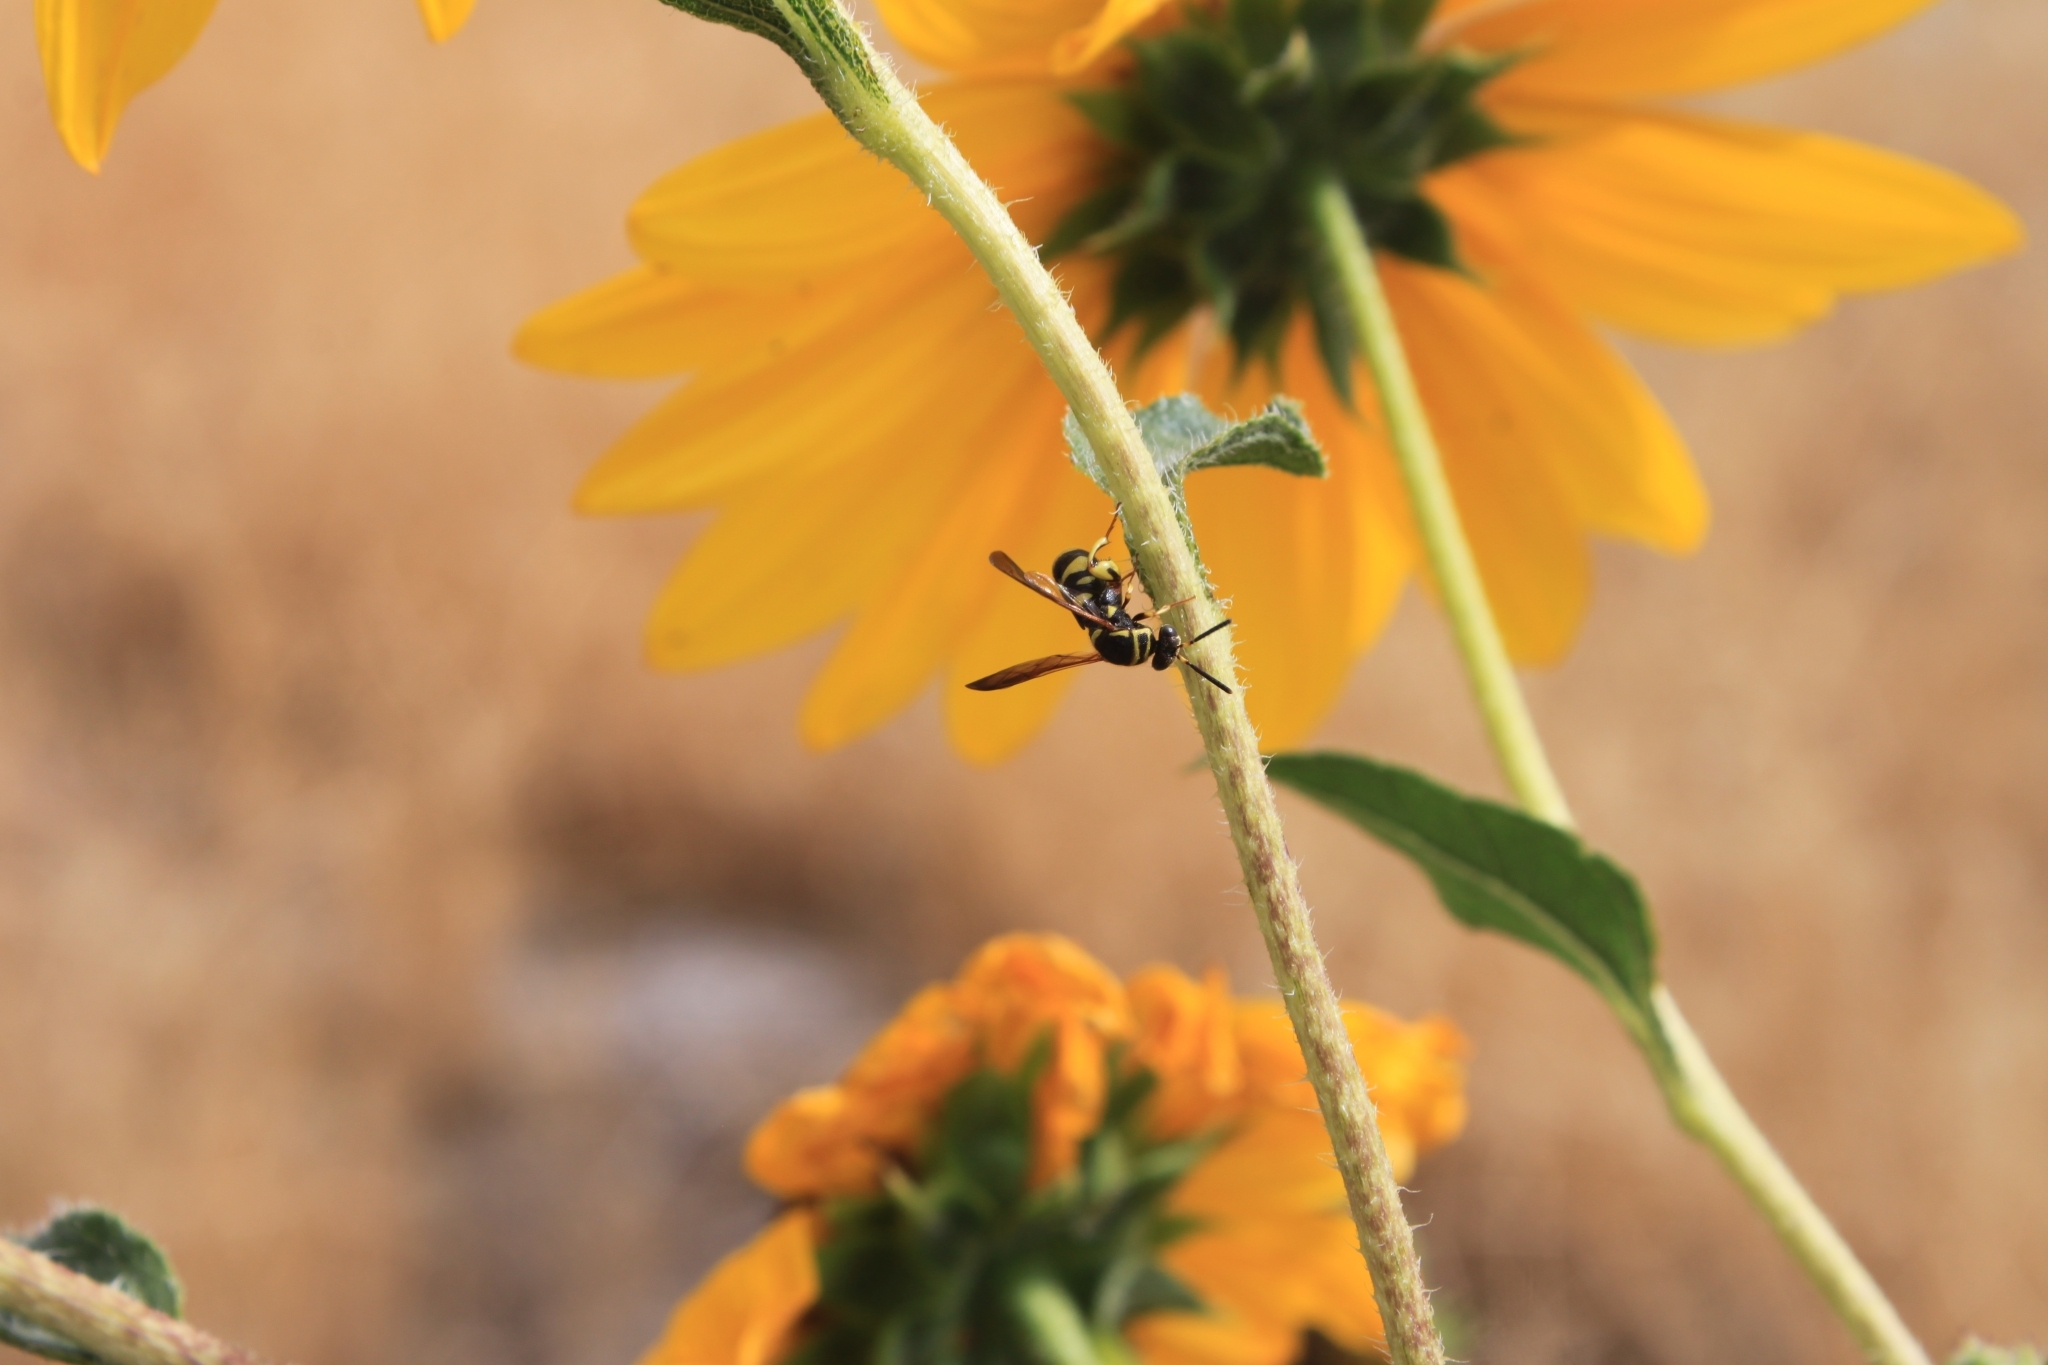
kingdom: Animalia
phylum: Arthropoda
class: Insecta
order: Hymenoptera
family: Leucospidae
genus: Leucospis
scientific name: Leucospis affinis
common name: Wasp
